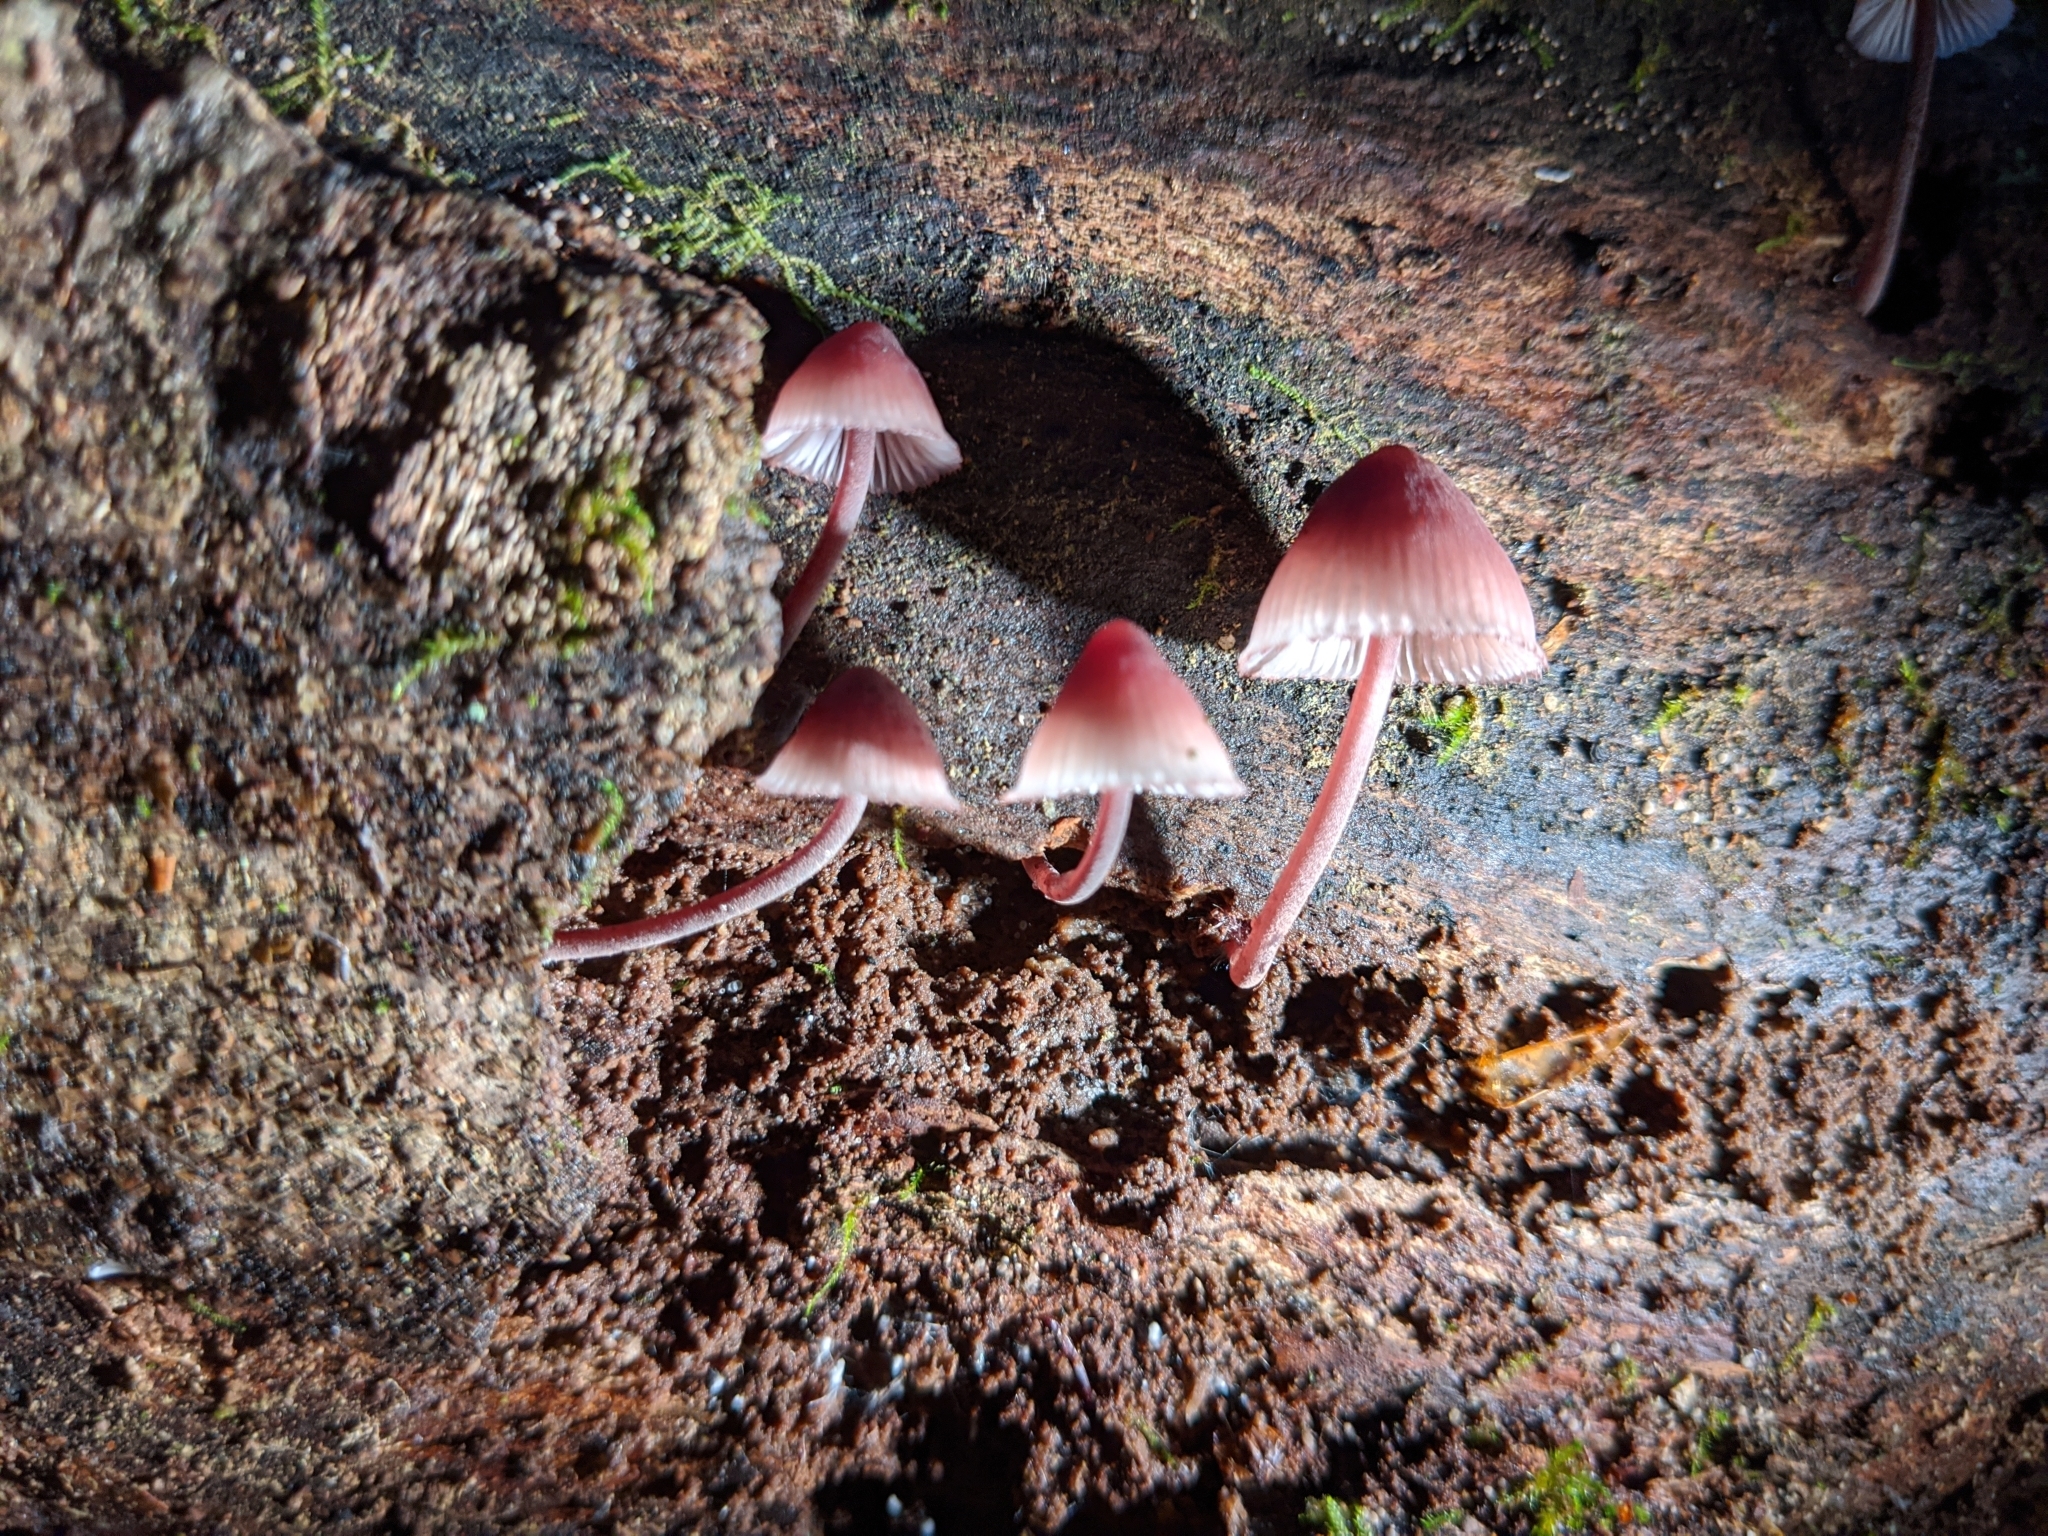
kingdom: Fungi
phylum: Basidiomycota
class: Agaricomycetes
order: Agaricales
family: Mycenaceae
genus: Mycena
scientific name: Mycena haematopus
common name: Burgundydrop bonnet
